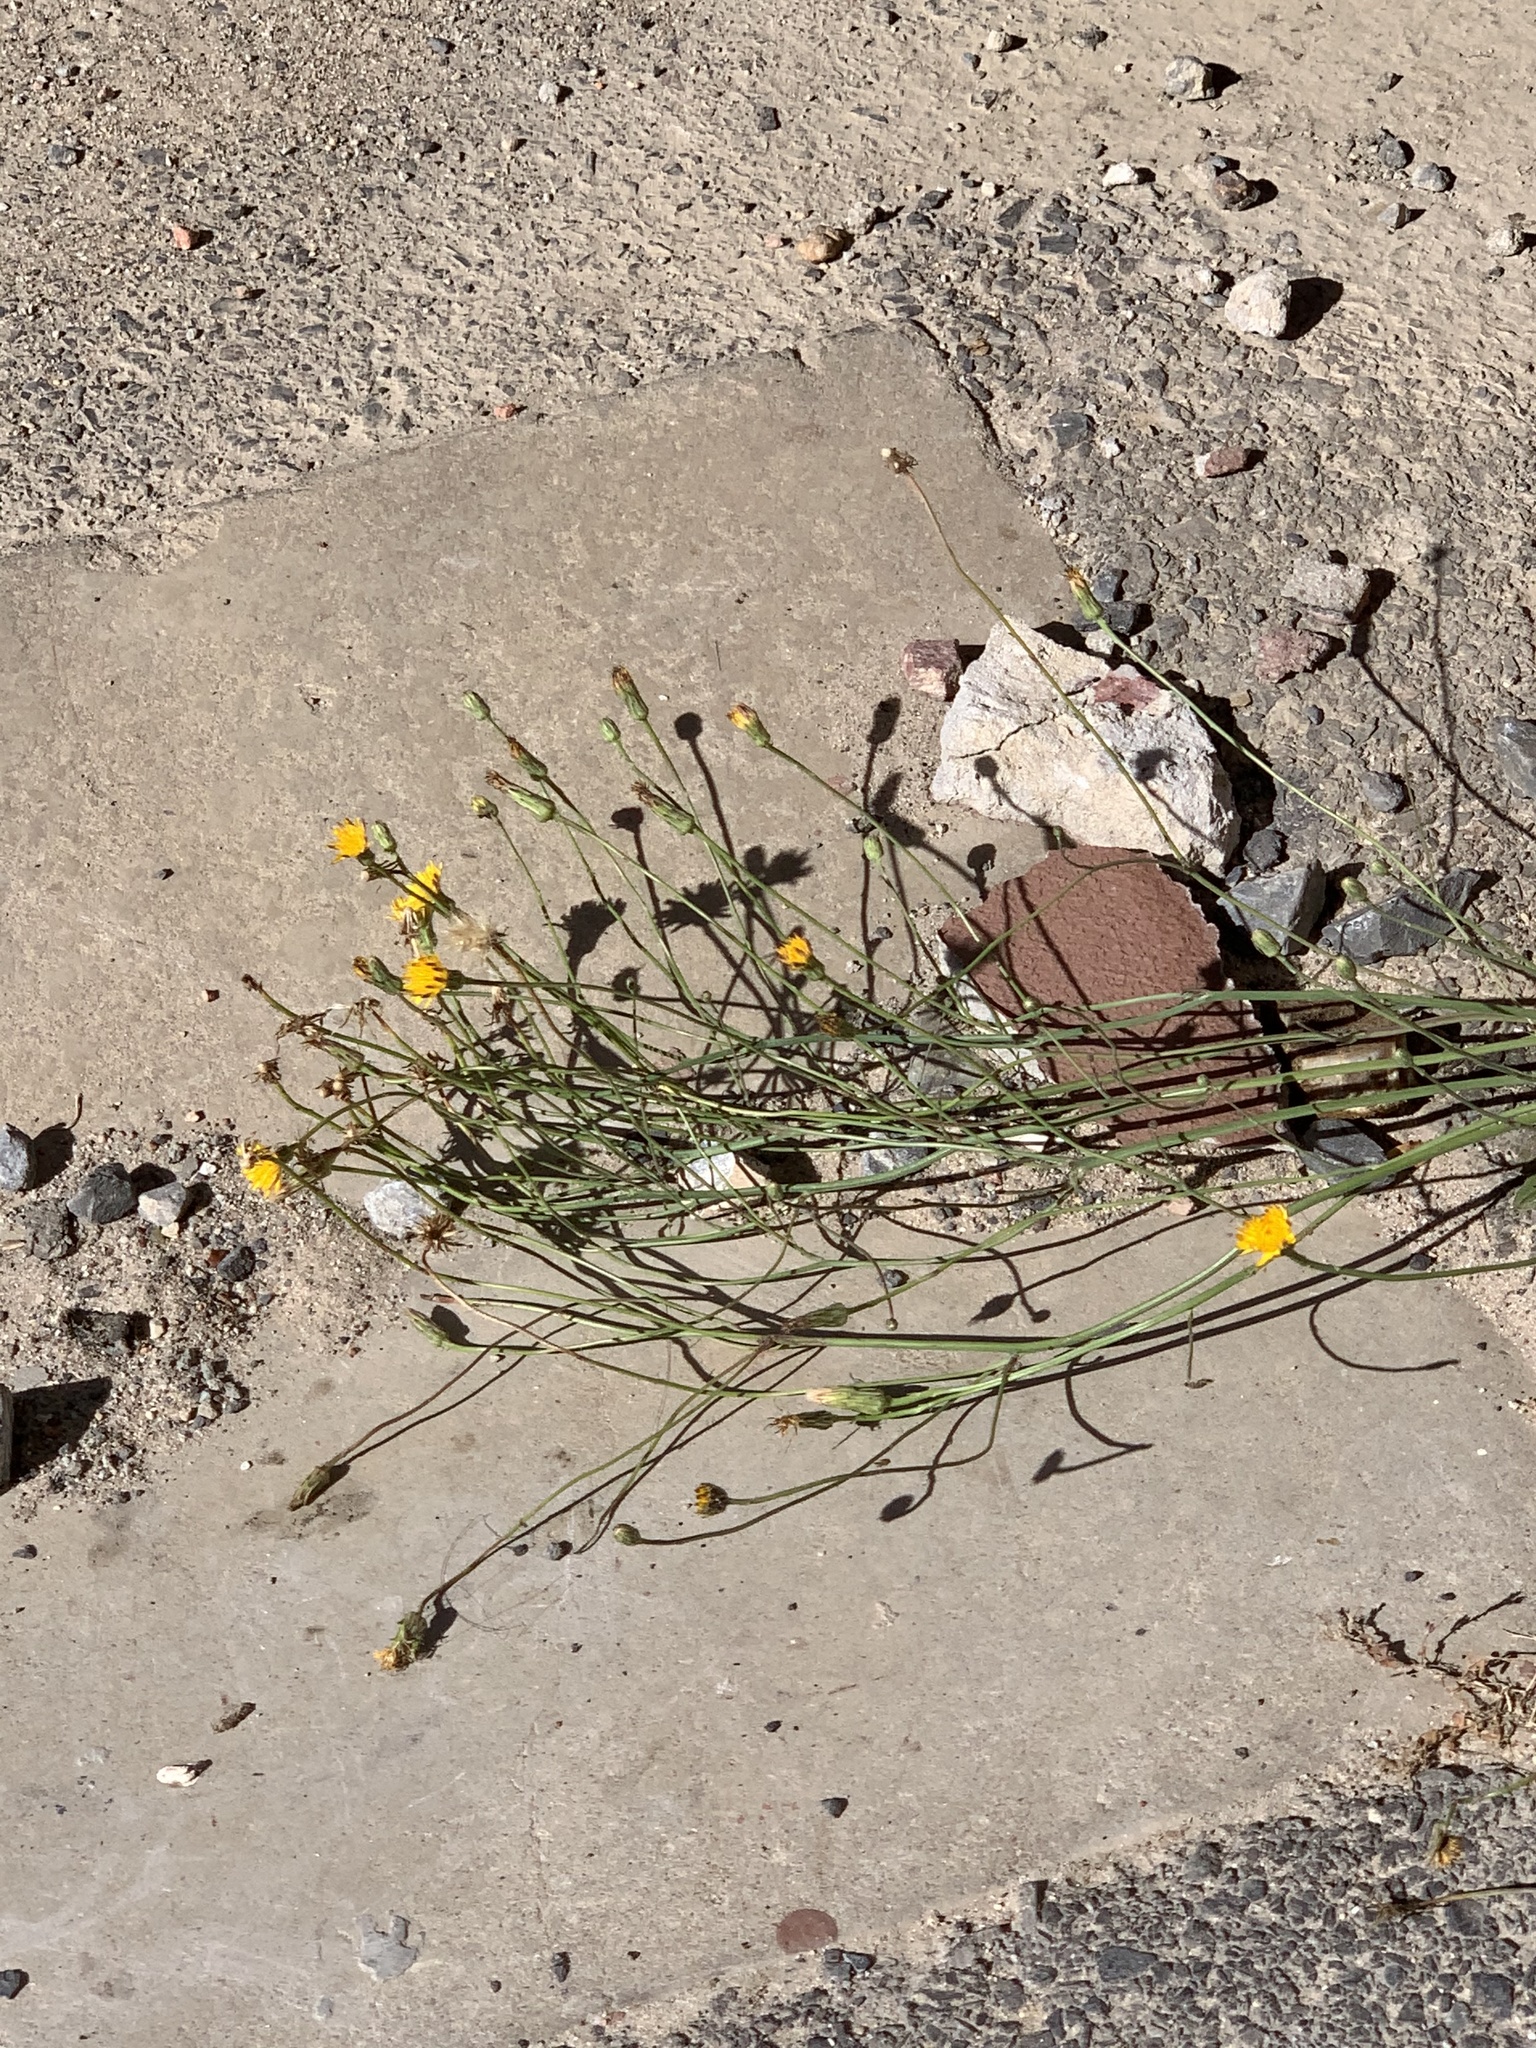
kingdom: Plantae
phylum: Tracheophyta
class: Magnoliopsida
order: Asterales
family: Asteraceae
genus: Hypochaeris
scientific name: Hypochaeris radicata
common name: Flatweed
